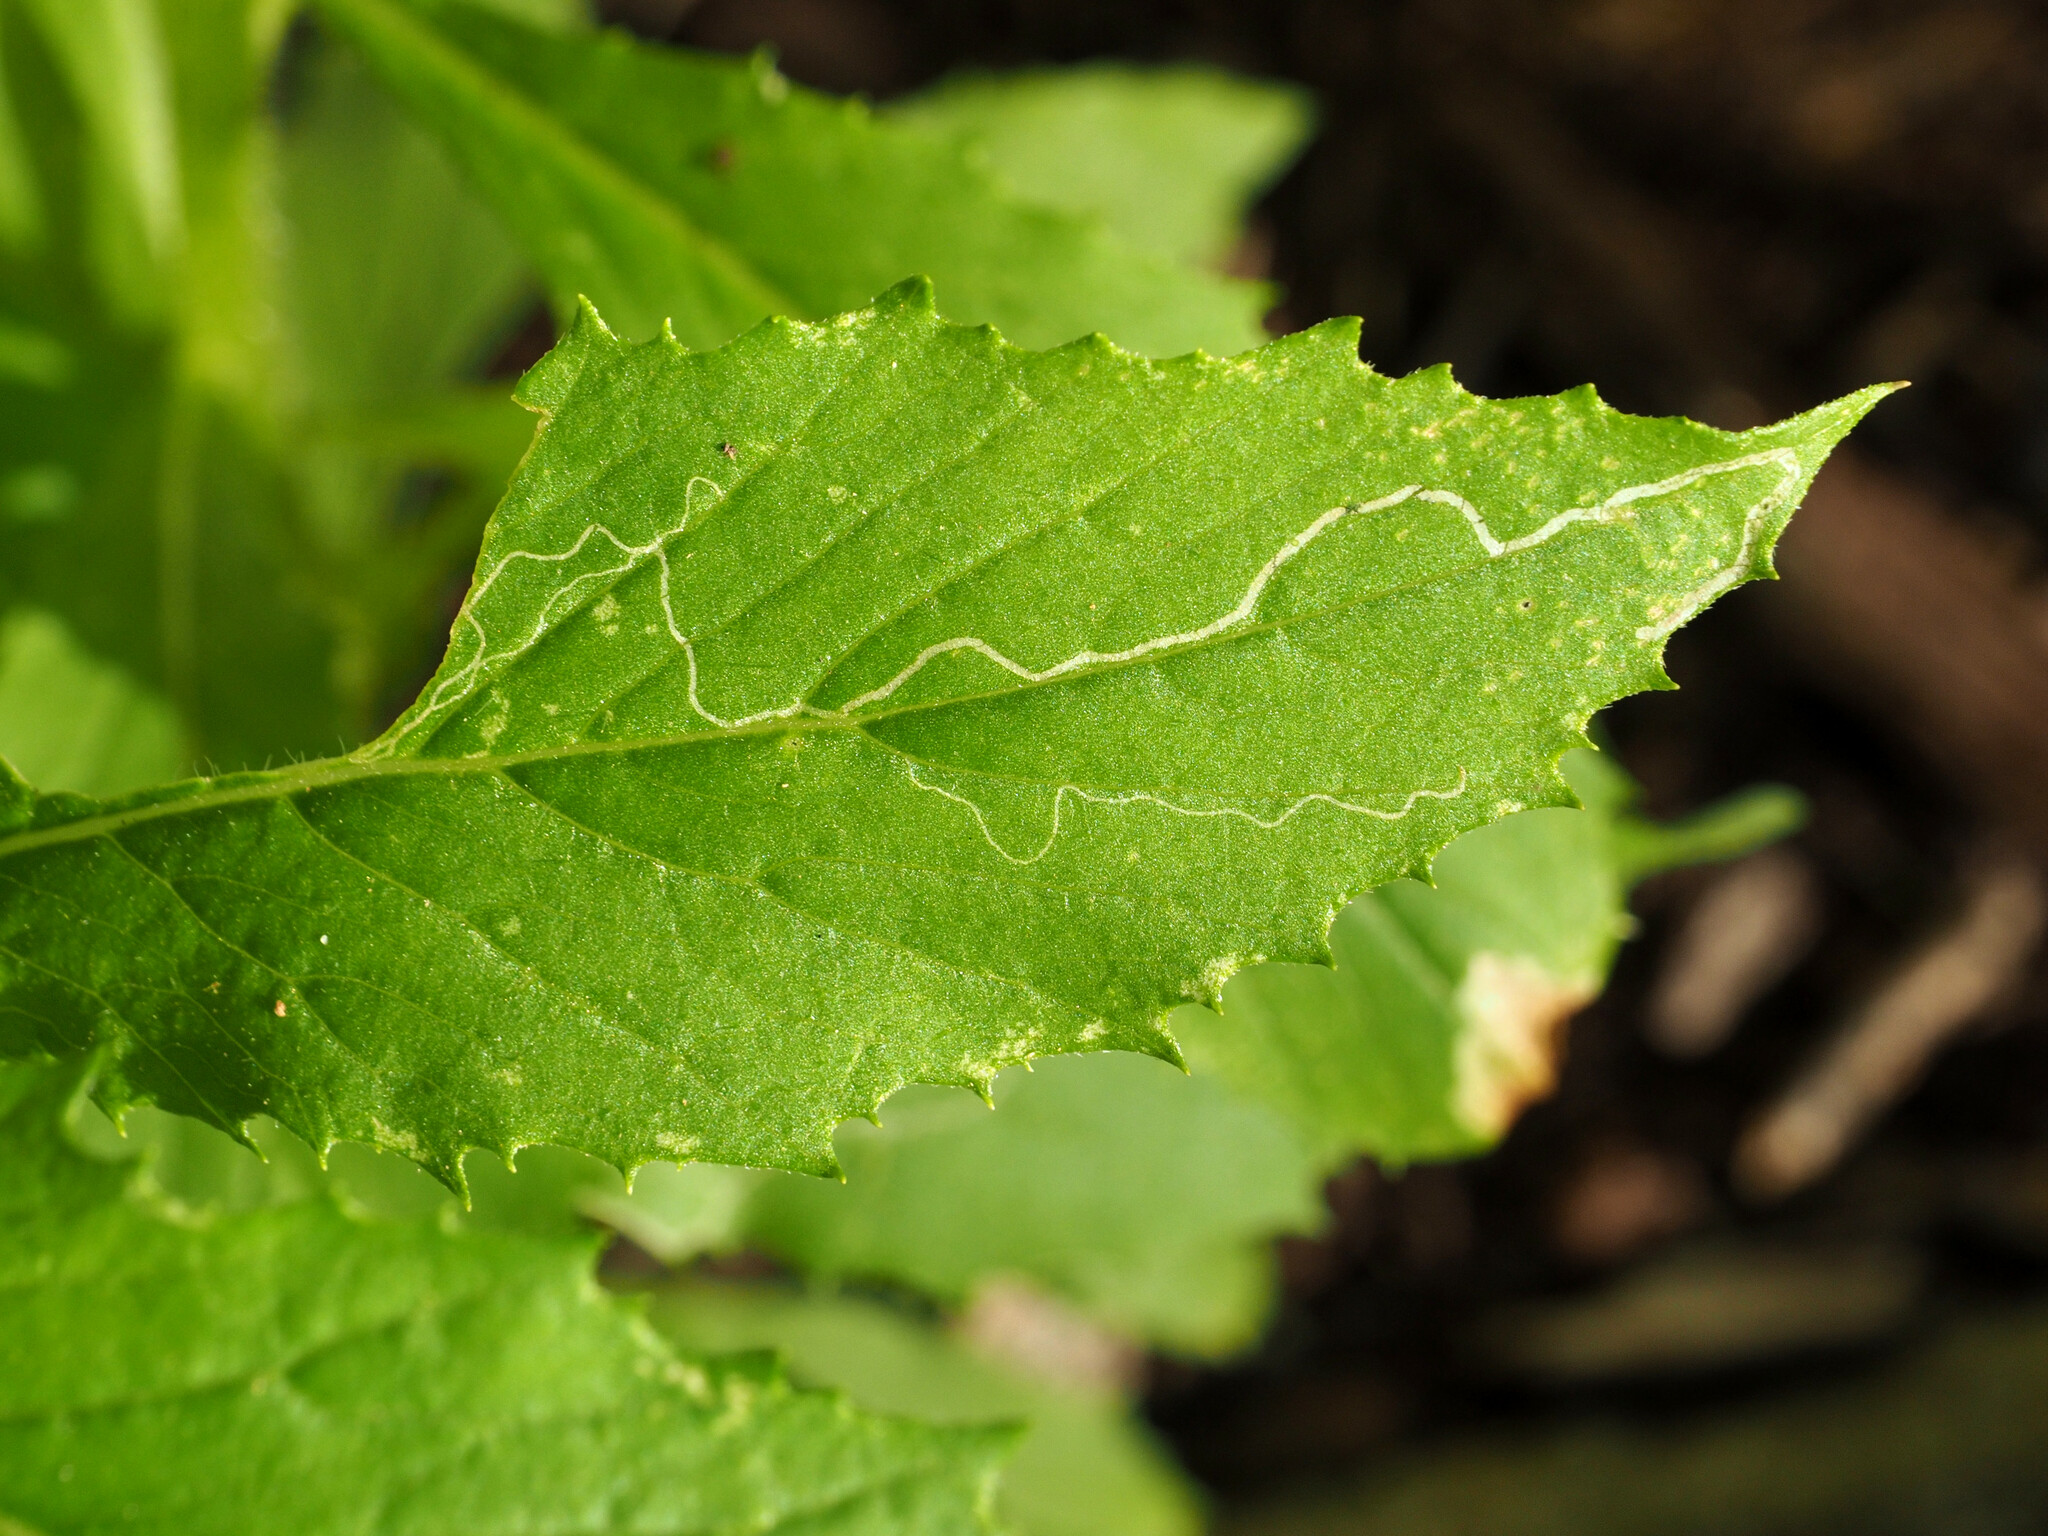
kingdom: Animalia
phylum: Arthropoda
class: Insecta
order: Lepidoptera
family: Gracillariidae
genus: Phyllocnistis
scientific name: Phyllocnistis insignis
